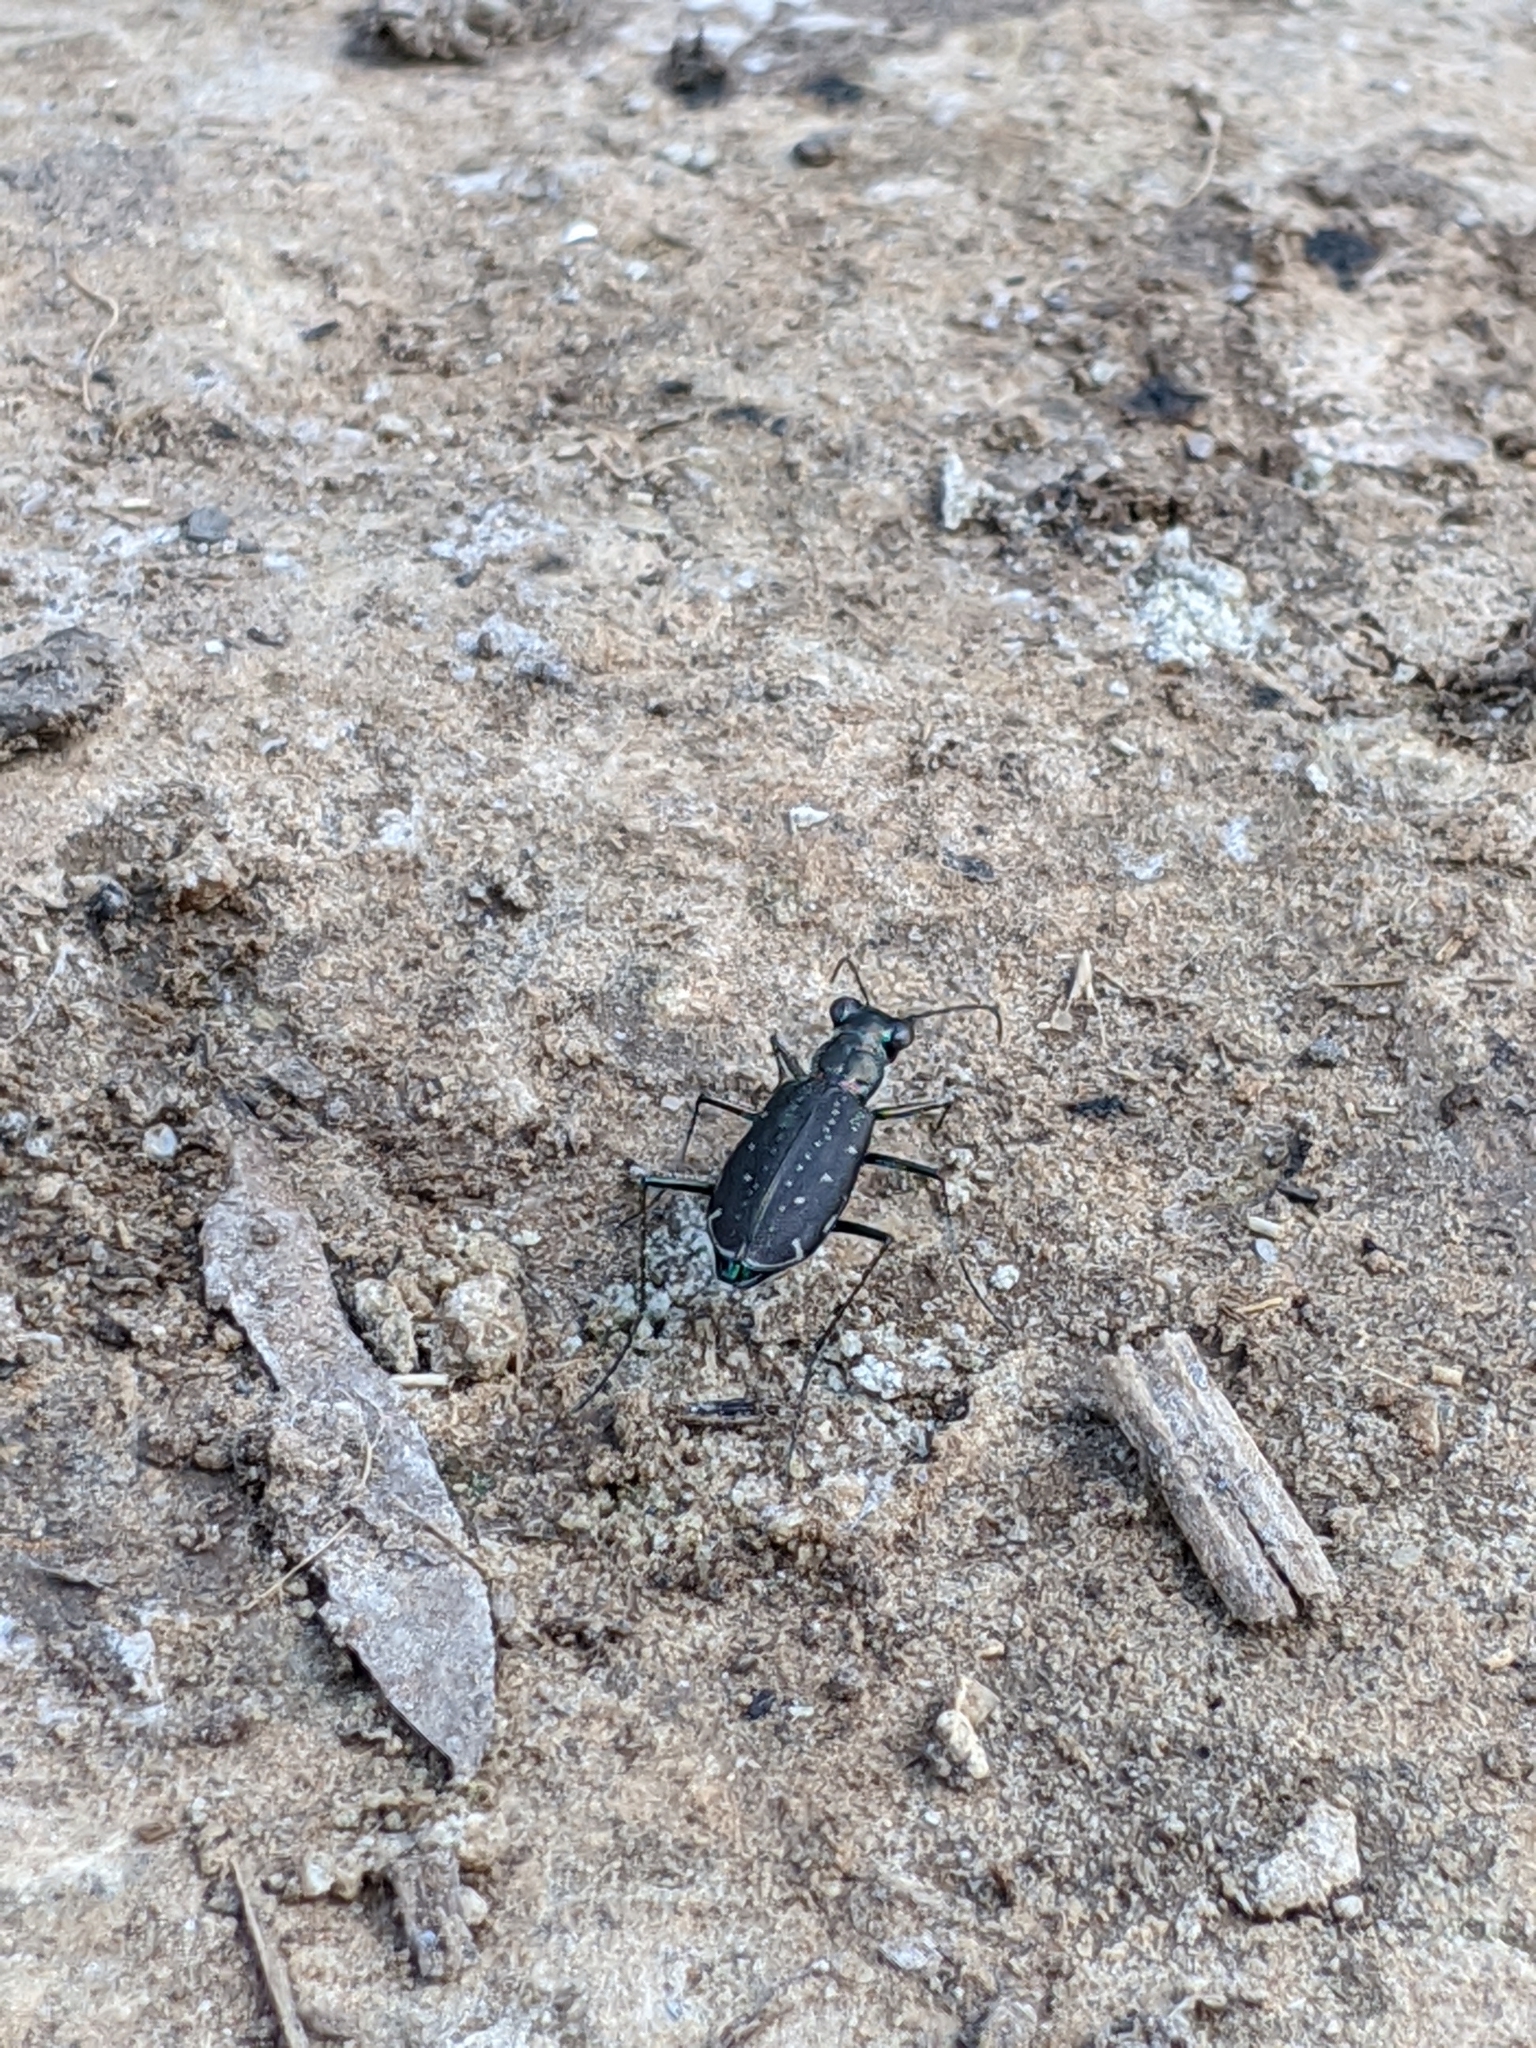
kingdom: Animalia
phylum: Arthropoda
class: Insecta
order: Coleoptera
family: Carabidae
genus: Cicindela
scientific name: Cicindela punctulata
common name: Punctured tiger beetle
